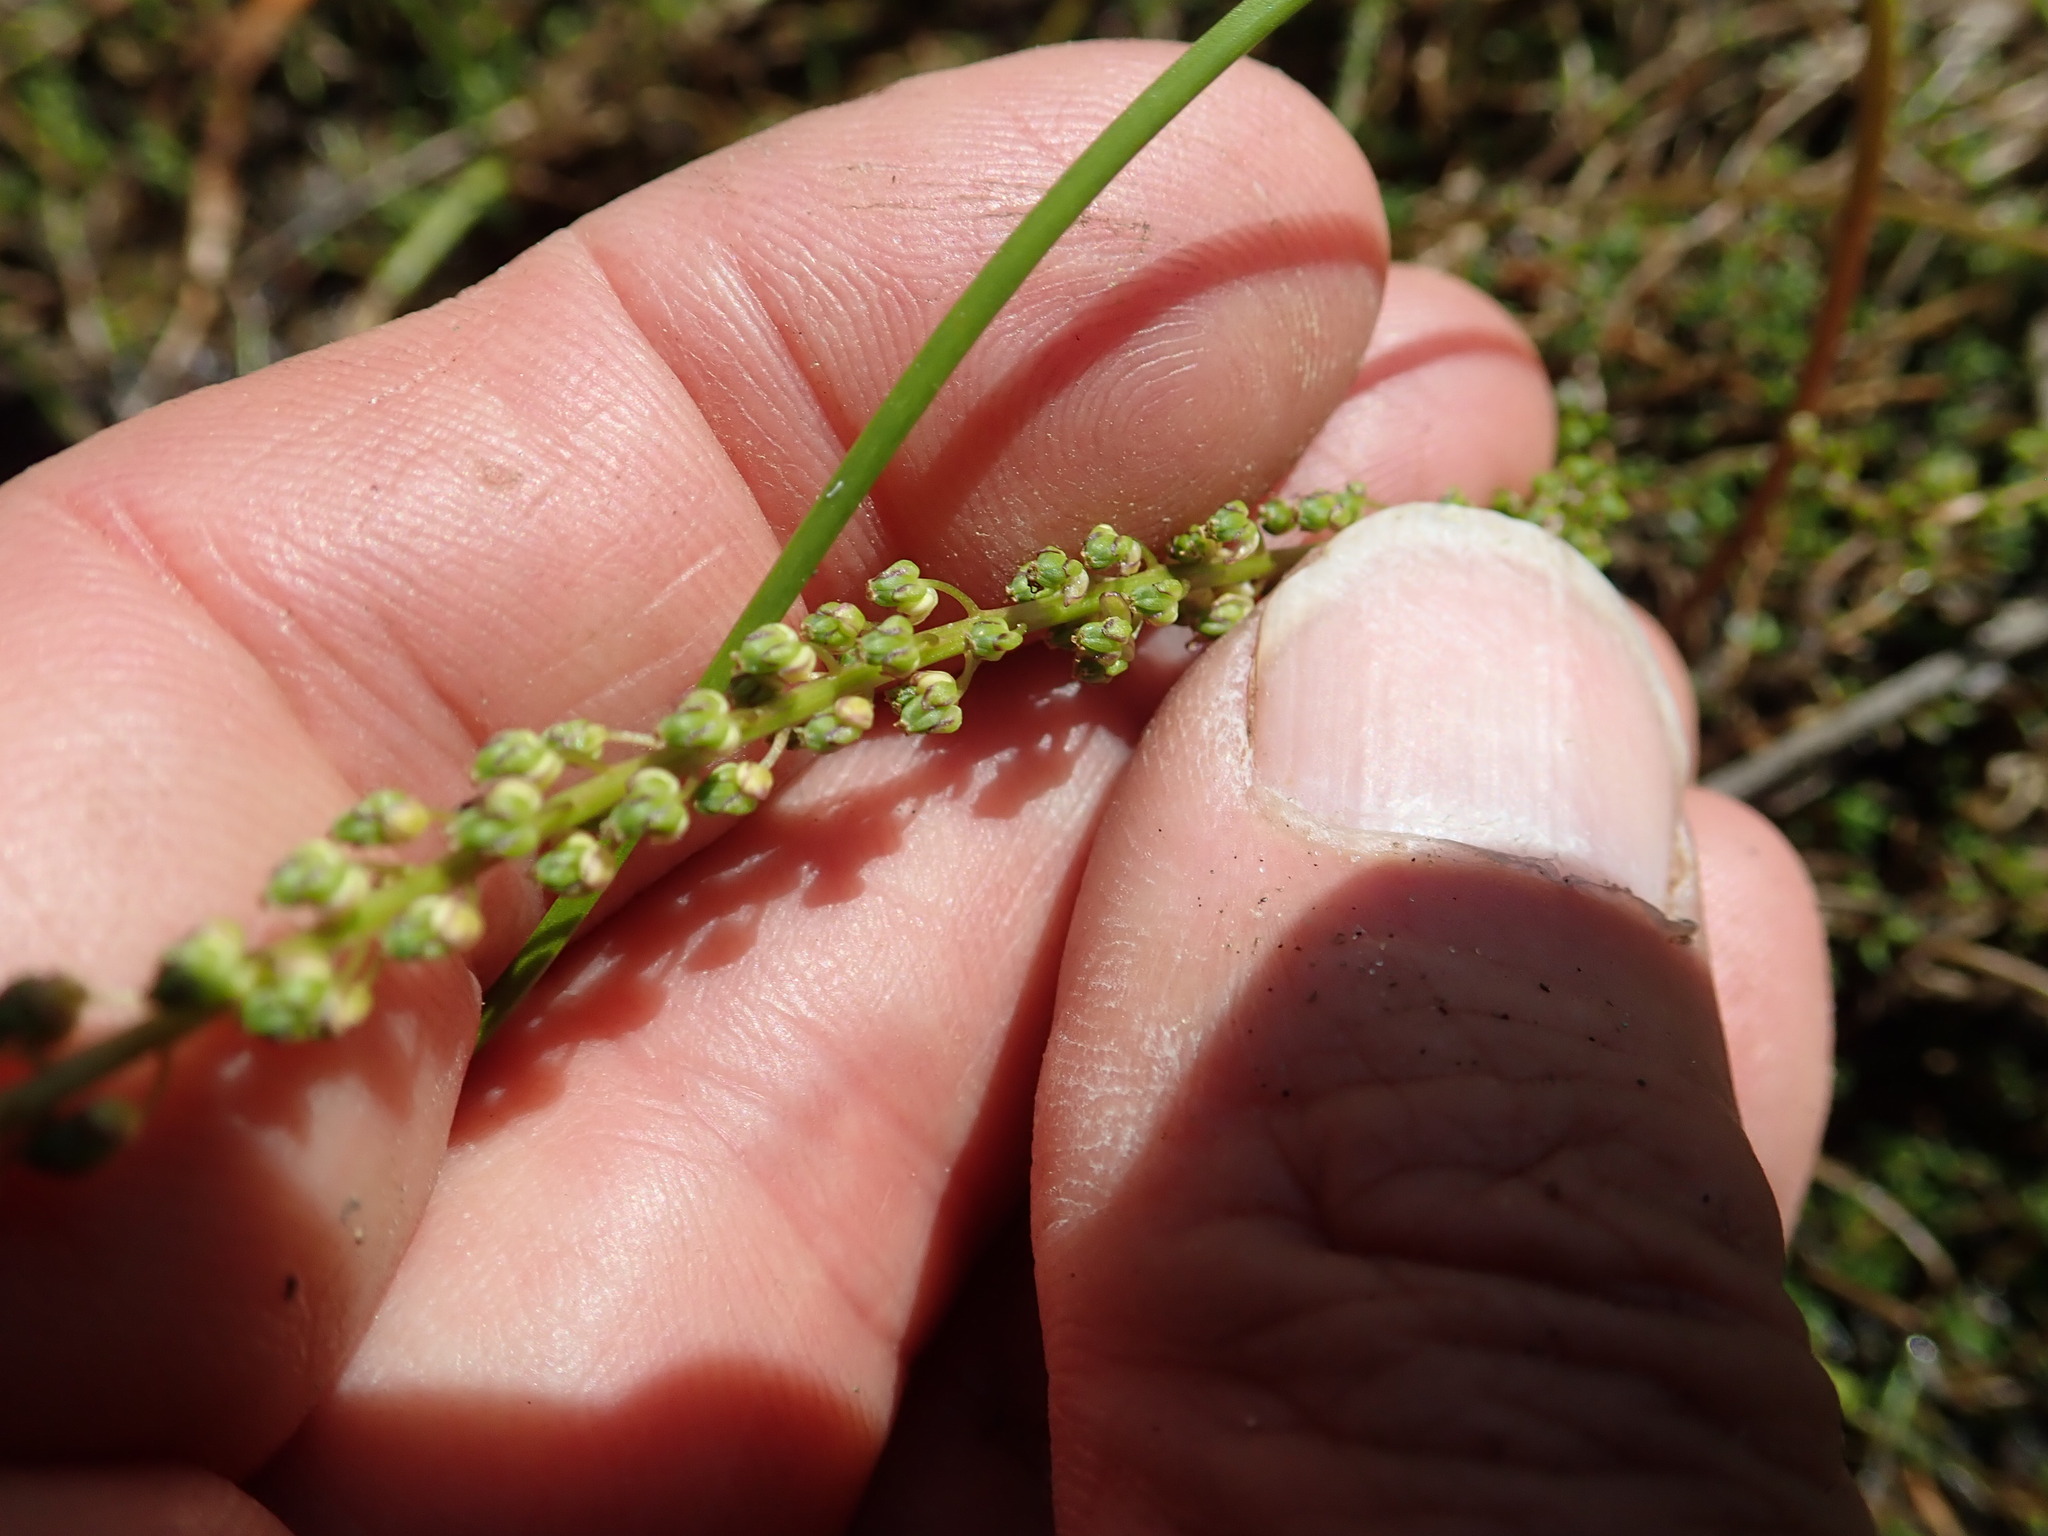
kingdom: Plantae
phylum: Tracheophyta
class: Liliopsida
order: Alismatales
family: Juncaginaceae
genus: Triglochin
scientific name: Triglochin striata
